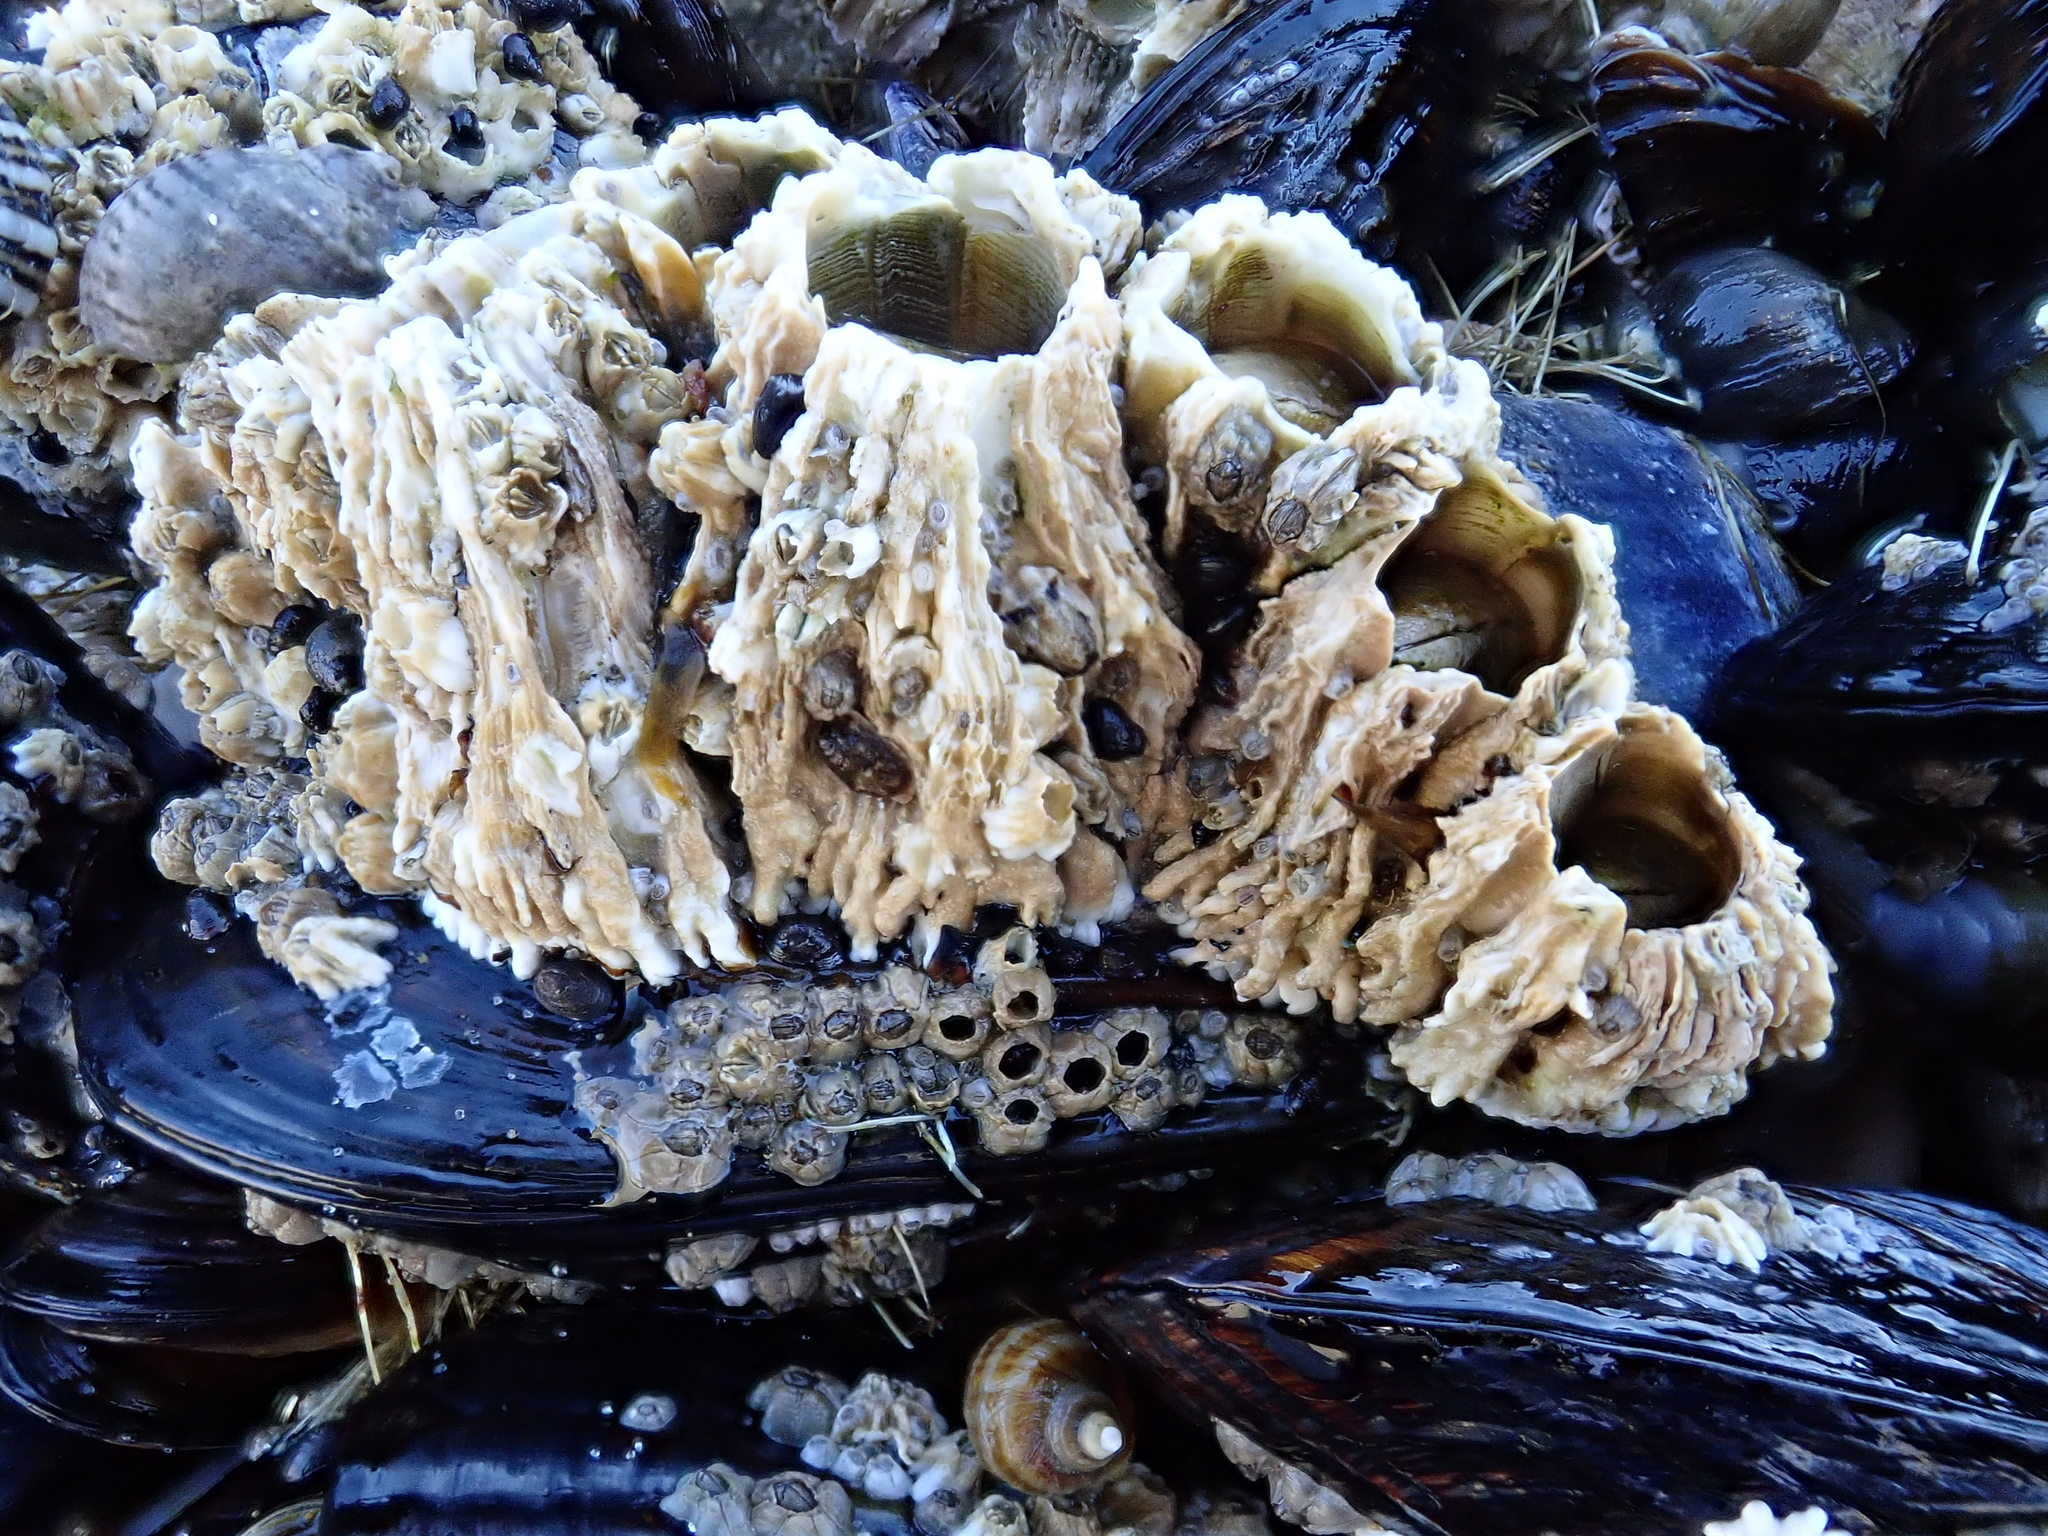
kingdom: Animalia
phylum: Arthropoda
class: Maxillopoda
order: Sessilia
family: Archaeobalanidae
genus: Semibalanus
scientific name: Semibalanus cariosus
